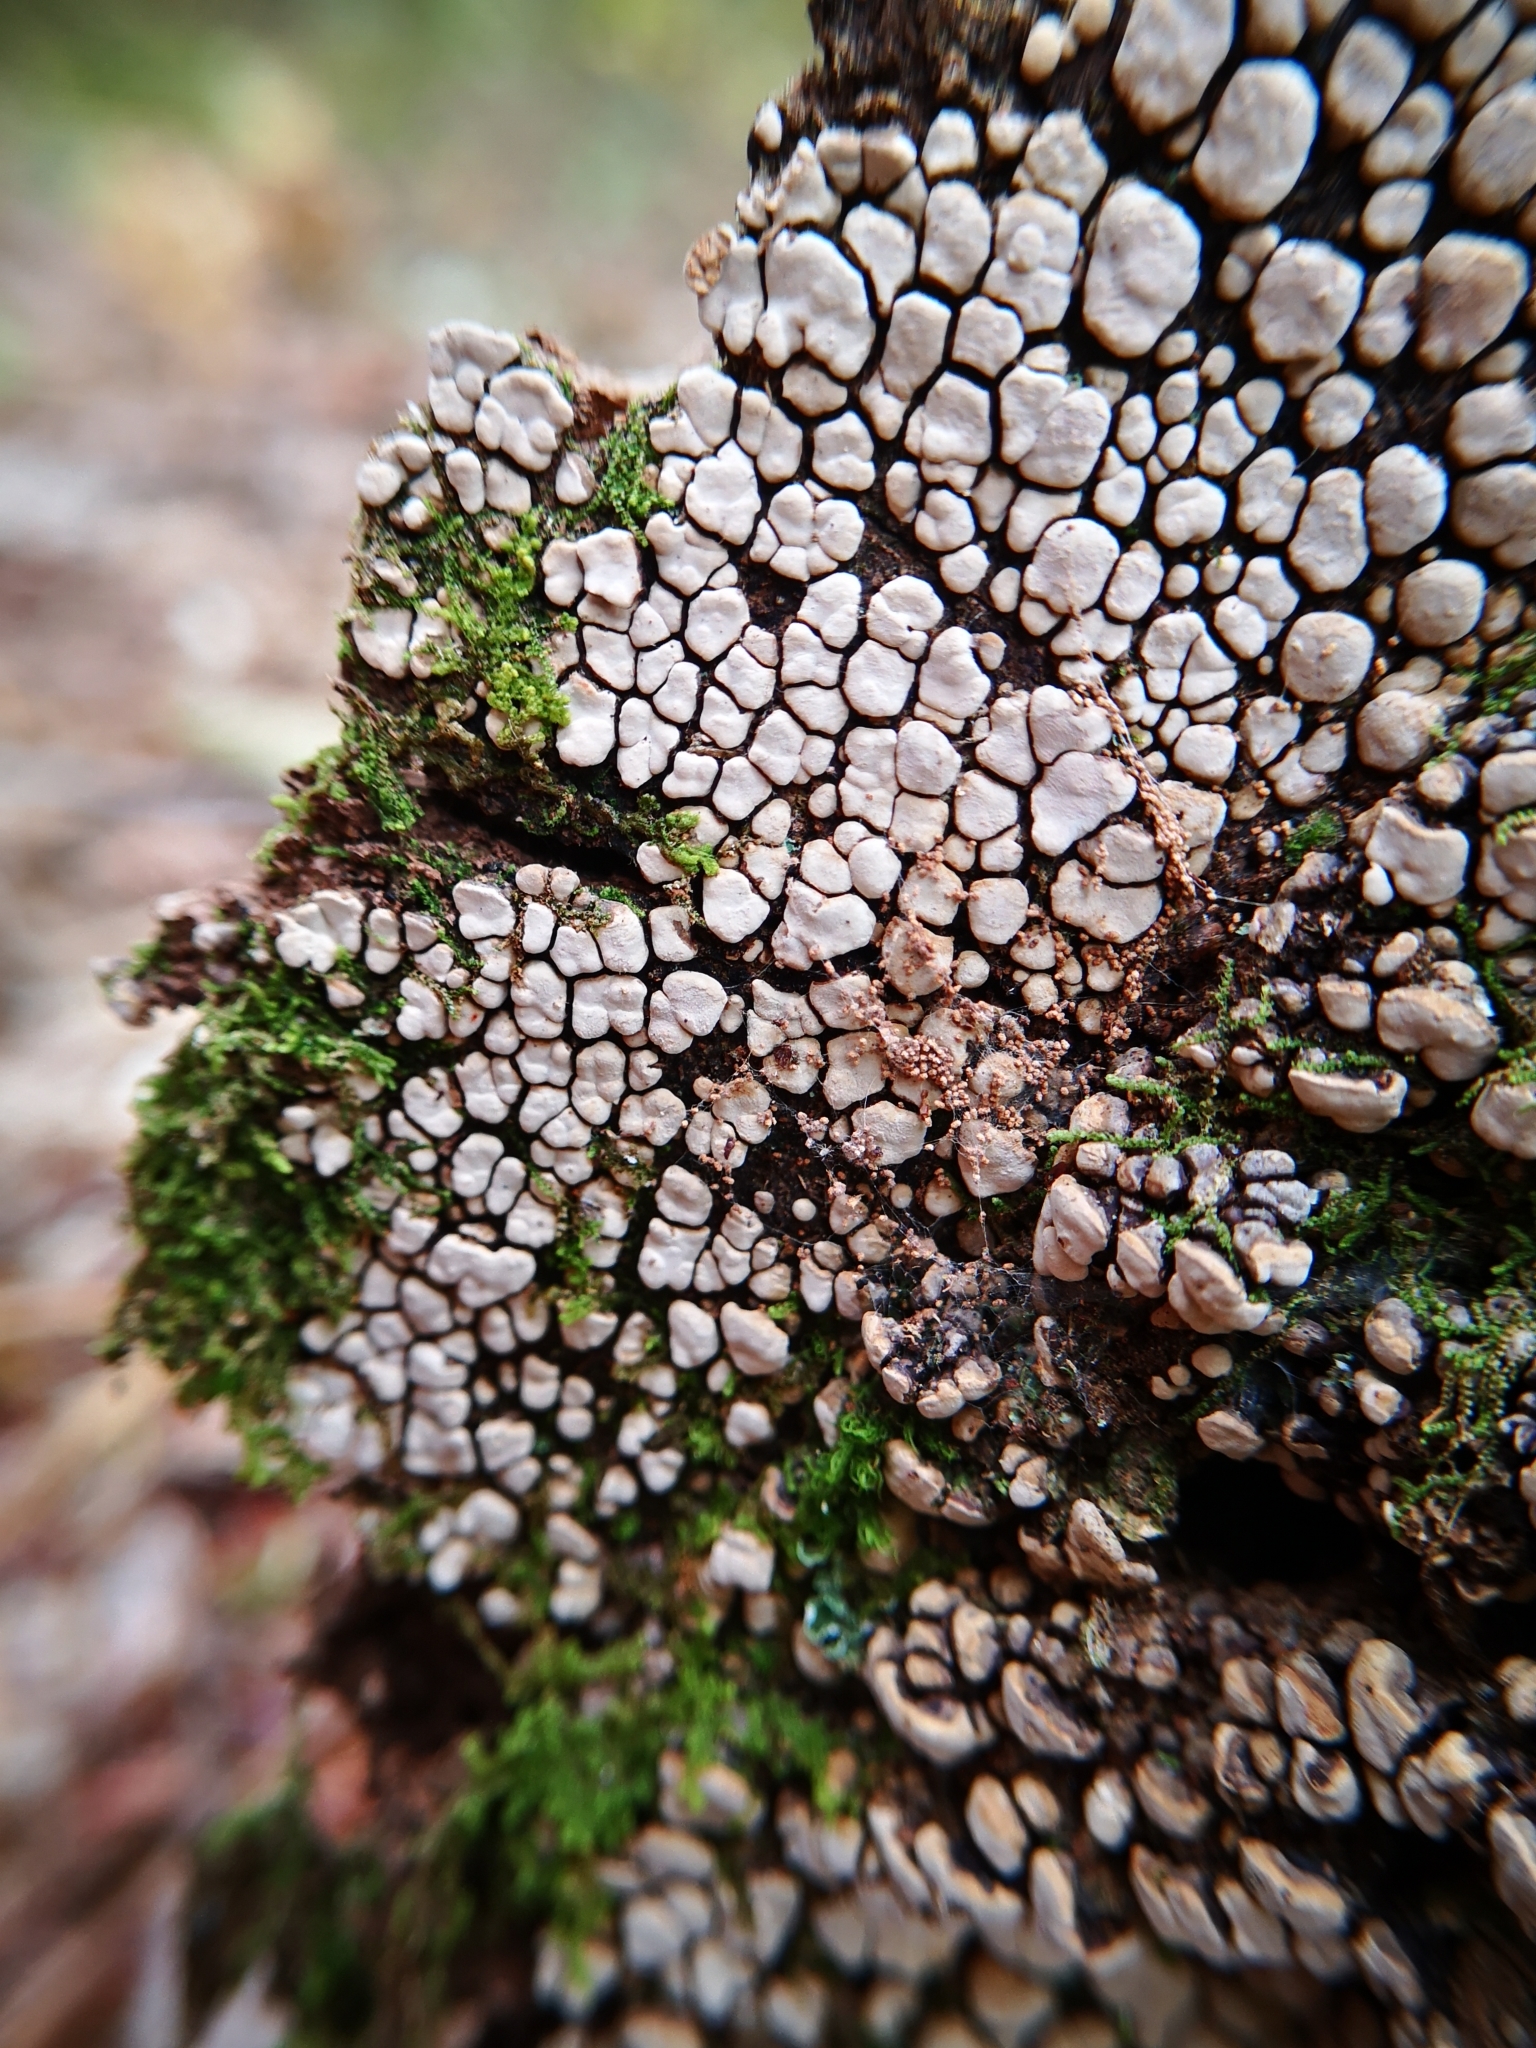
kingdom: Fungi
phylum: Basidiomycota
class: Agaricomycetes
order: Russulales
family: Stereaceae
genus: Xylobolus
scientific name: Xylobolus frustulatus
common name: Ceramic parchment
